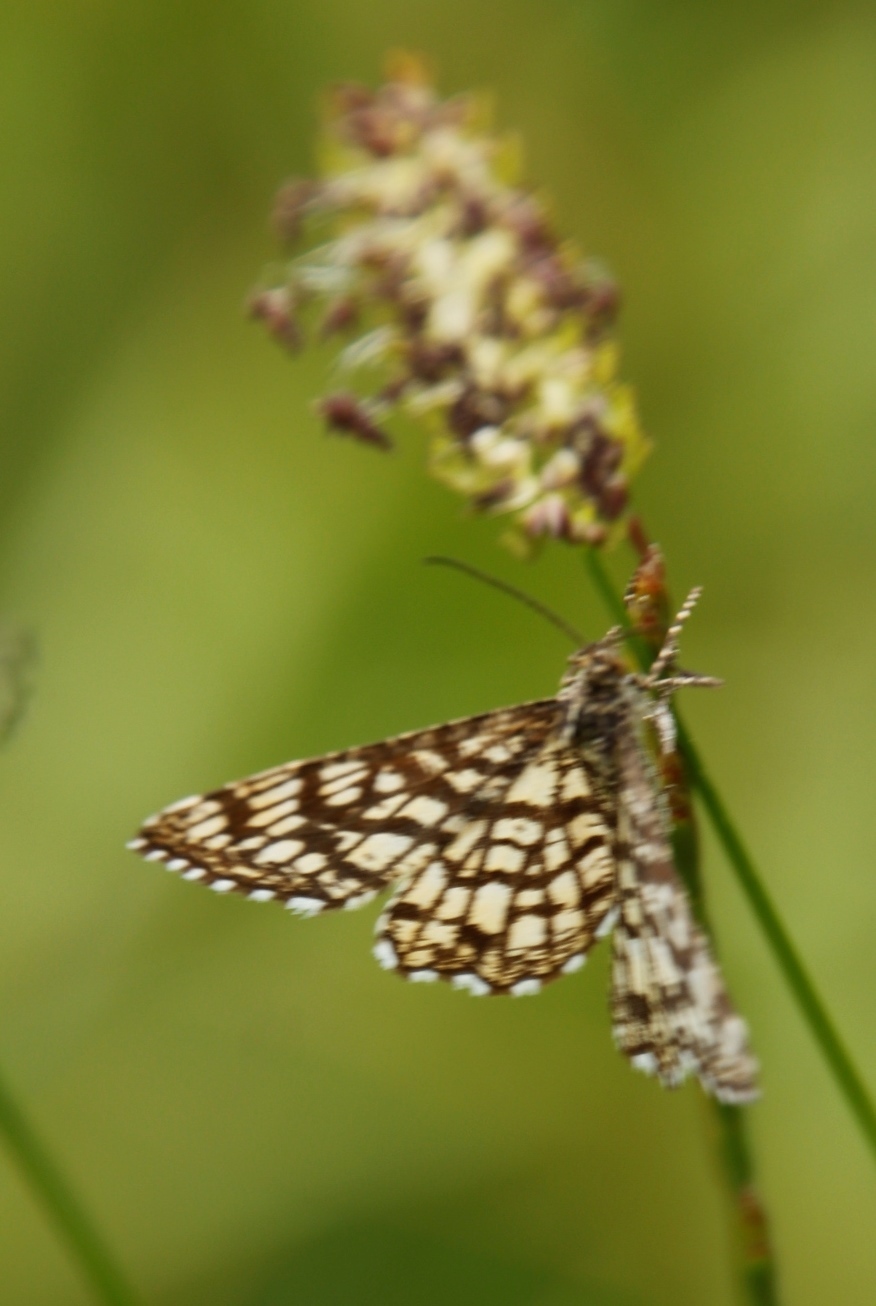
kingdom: Animalia
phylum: Arthropoda
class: Insecta
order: Lepidoptera
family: Geometridae
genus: Chiasmia
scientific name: Chiasmia clathrata
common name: Latticed heath
